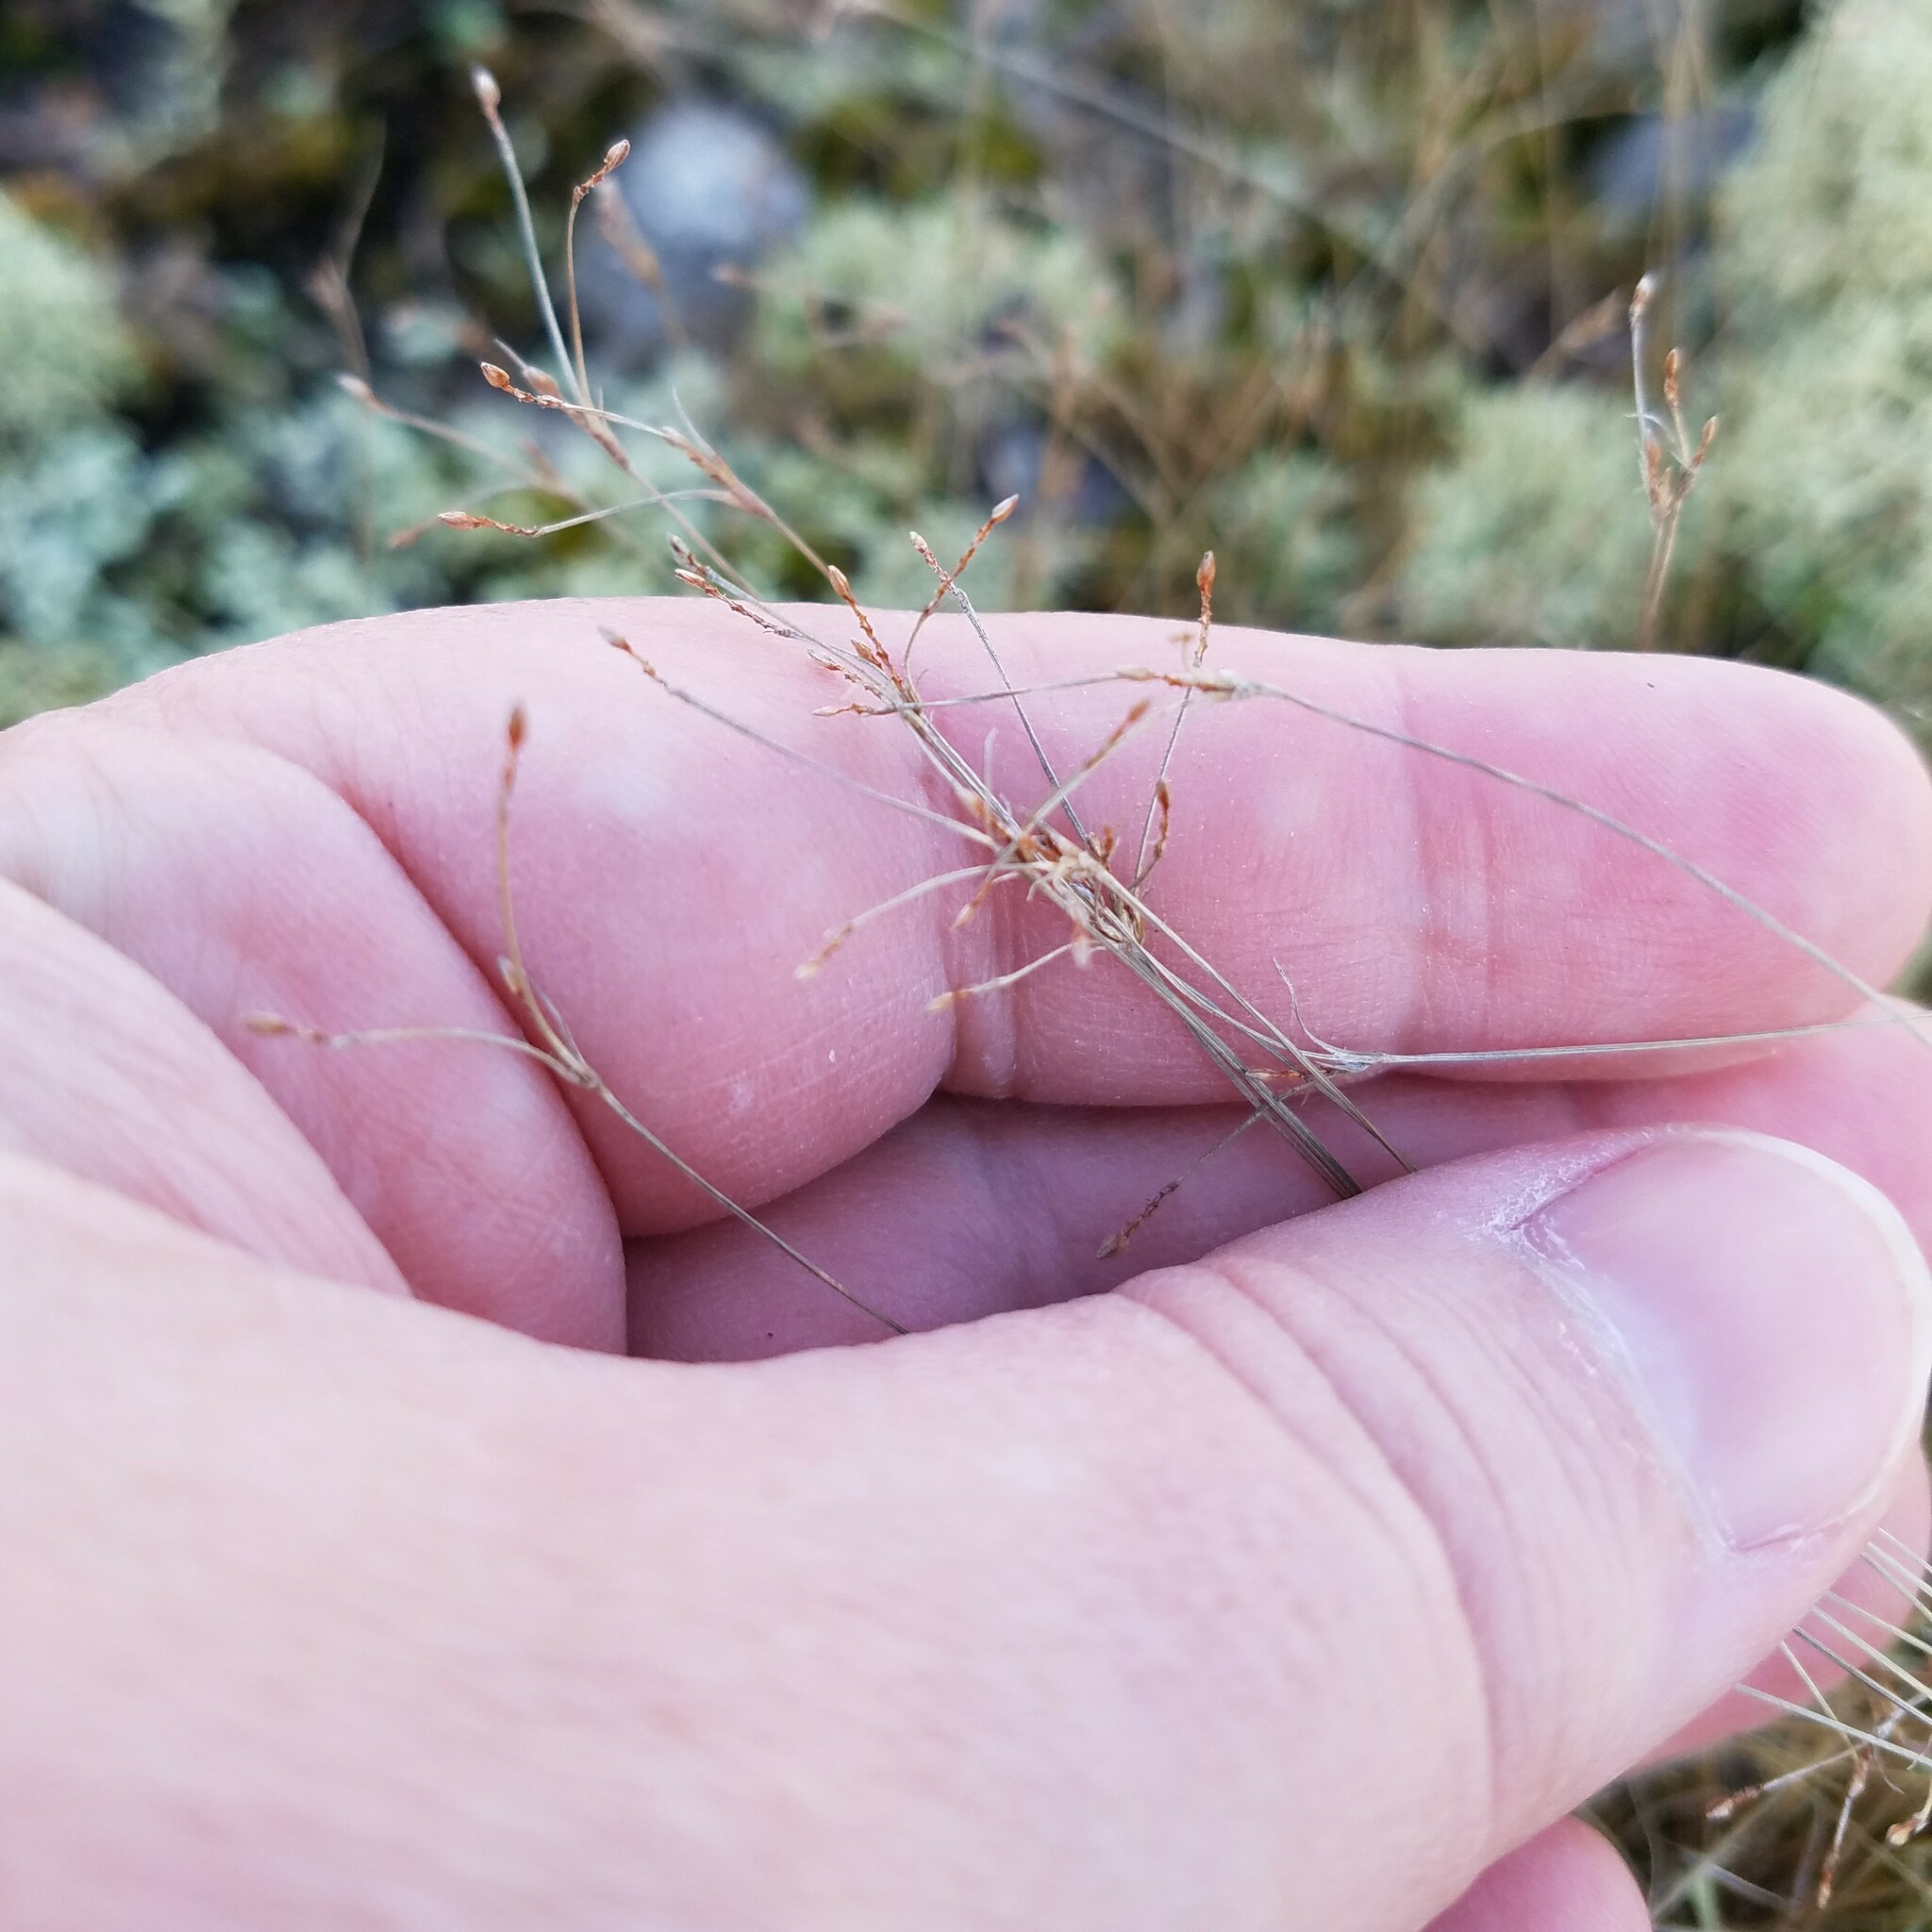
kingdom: Plantae
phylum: Tracheophyta
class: Liliopsida
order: Poales
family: Cyperaceae
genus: Bulbostylis
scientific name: Bulbostylis capillaris
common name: Densetuft hairsedge
